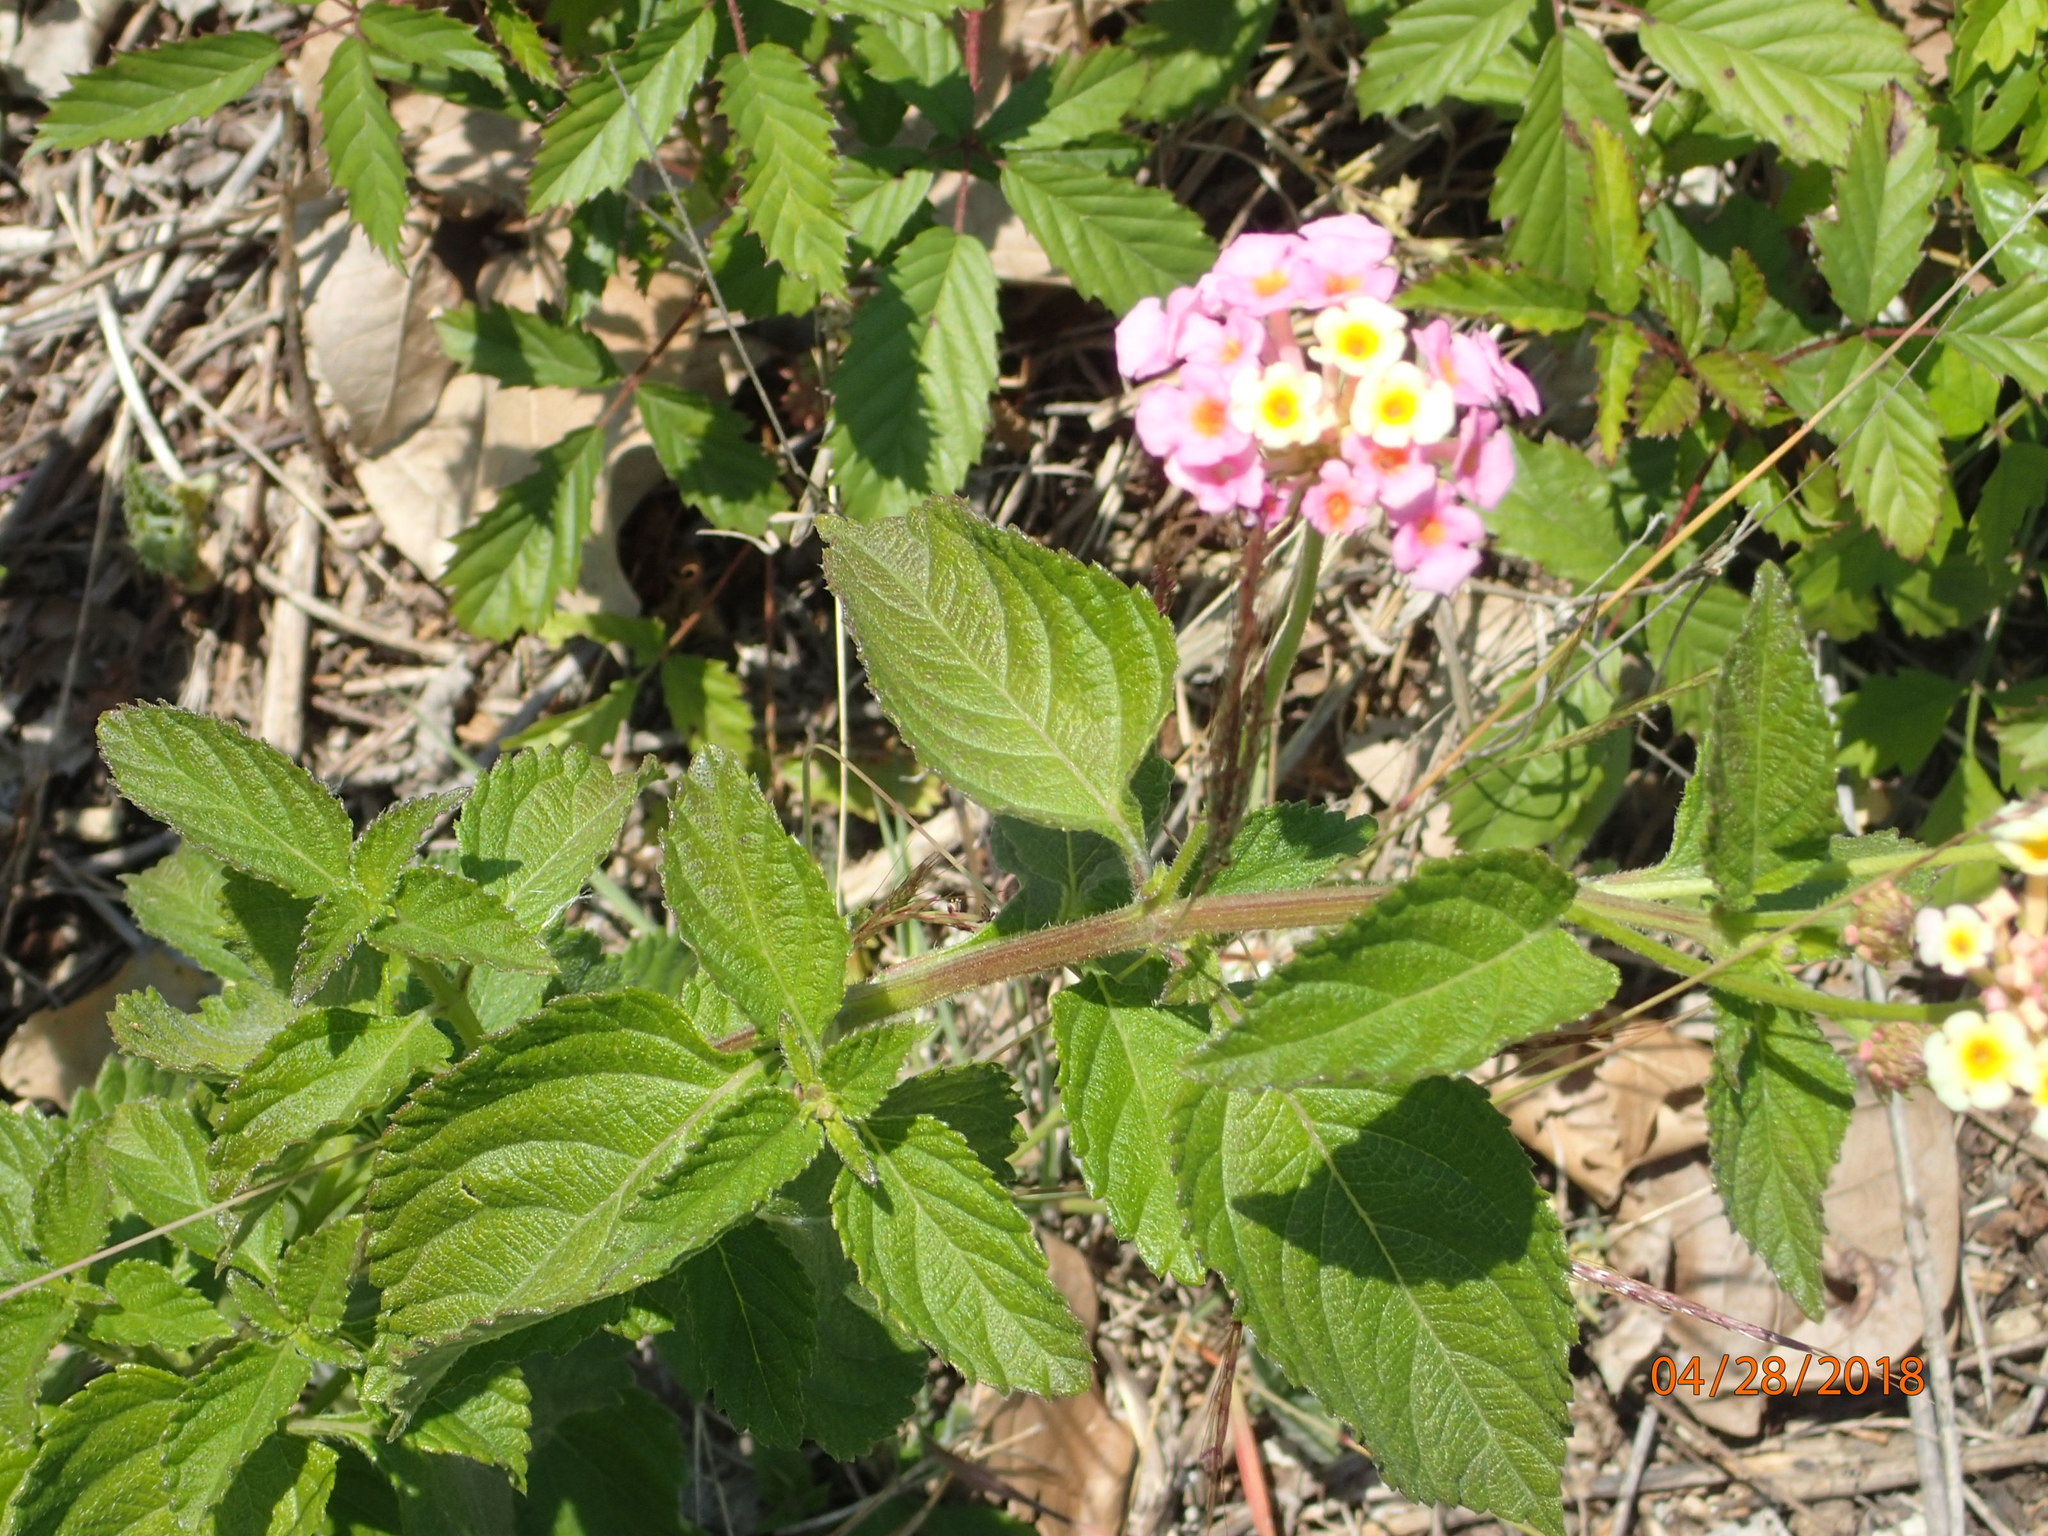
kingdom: Plantae
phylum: Tracheophyta
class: Magnoliopsida
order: Lamiales
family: Verbenaceae
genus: Lantana
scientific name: Lantana strigocamara
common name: Lantana
